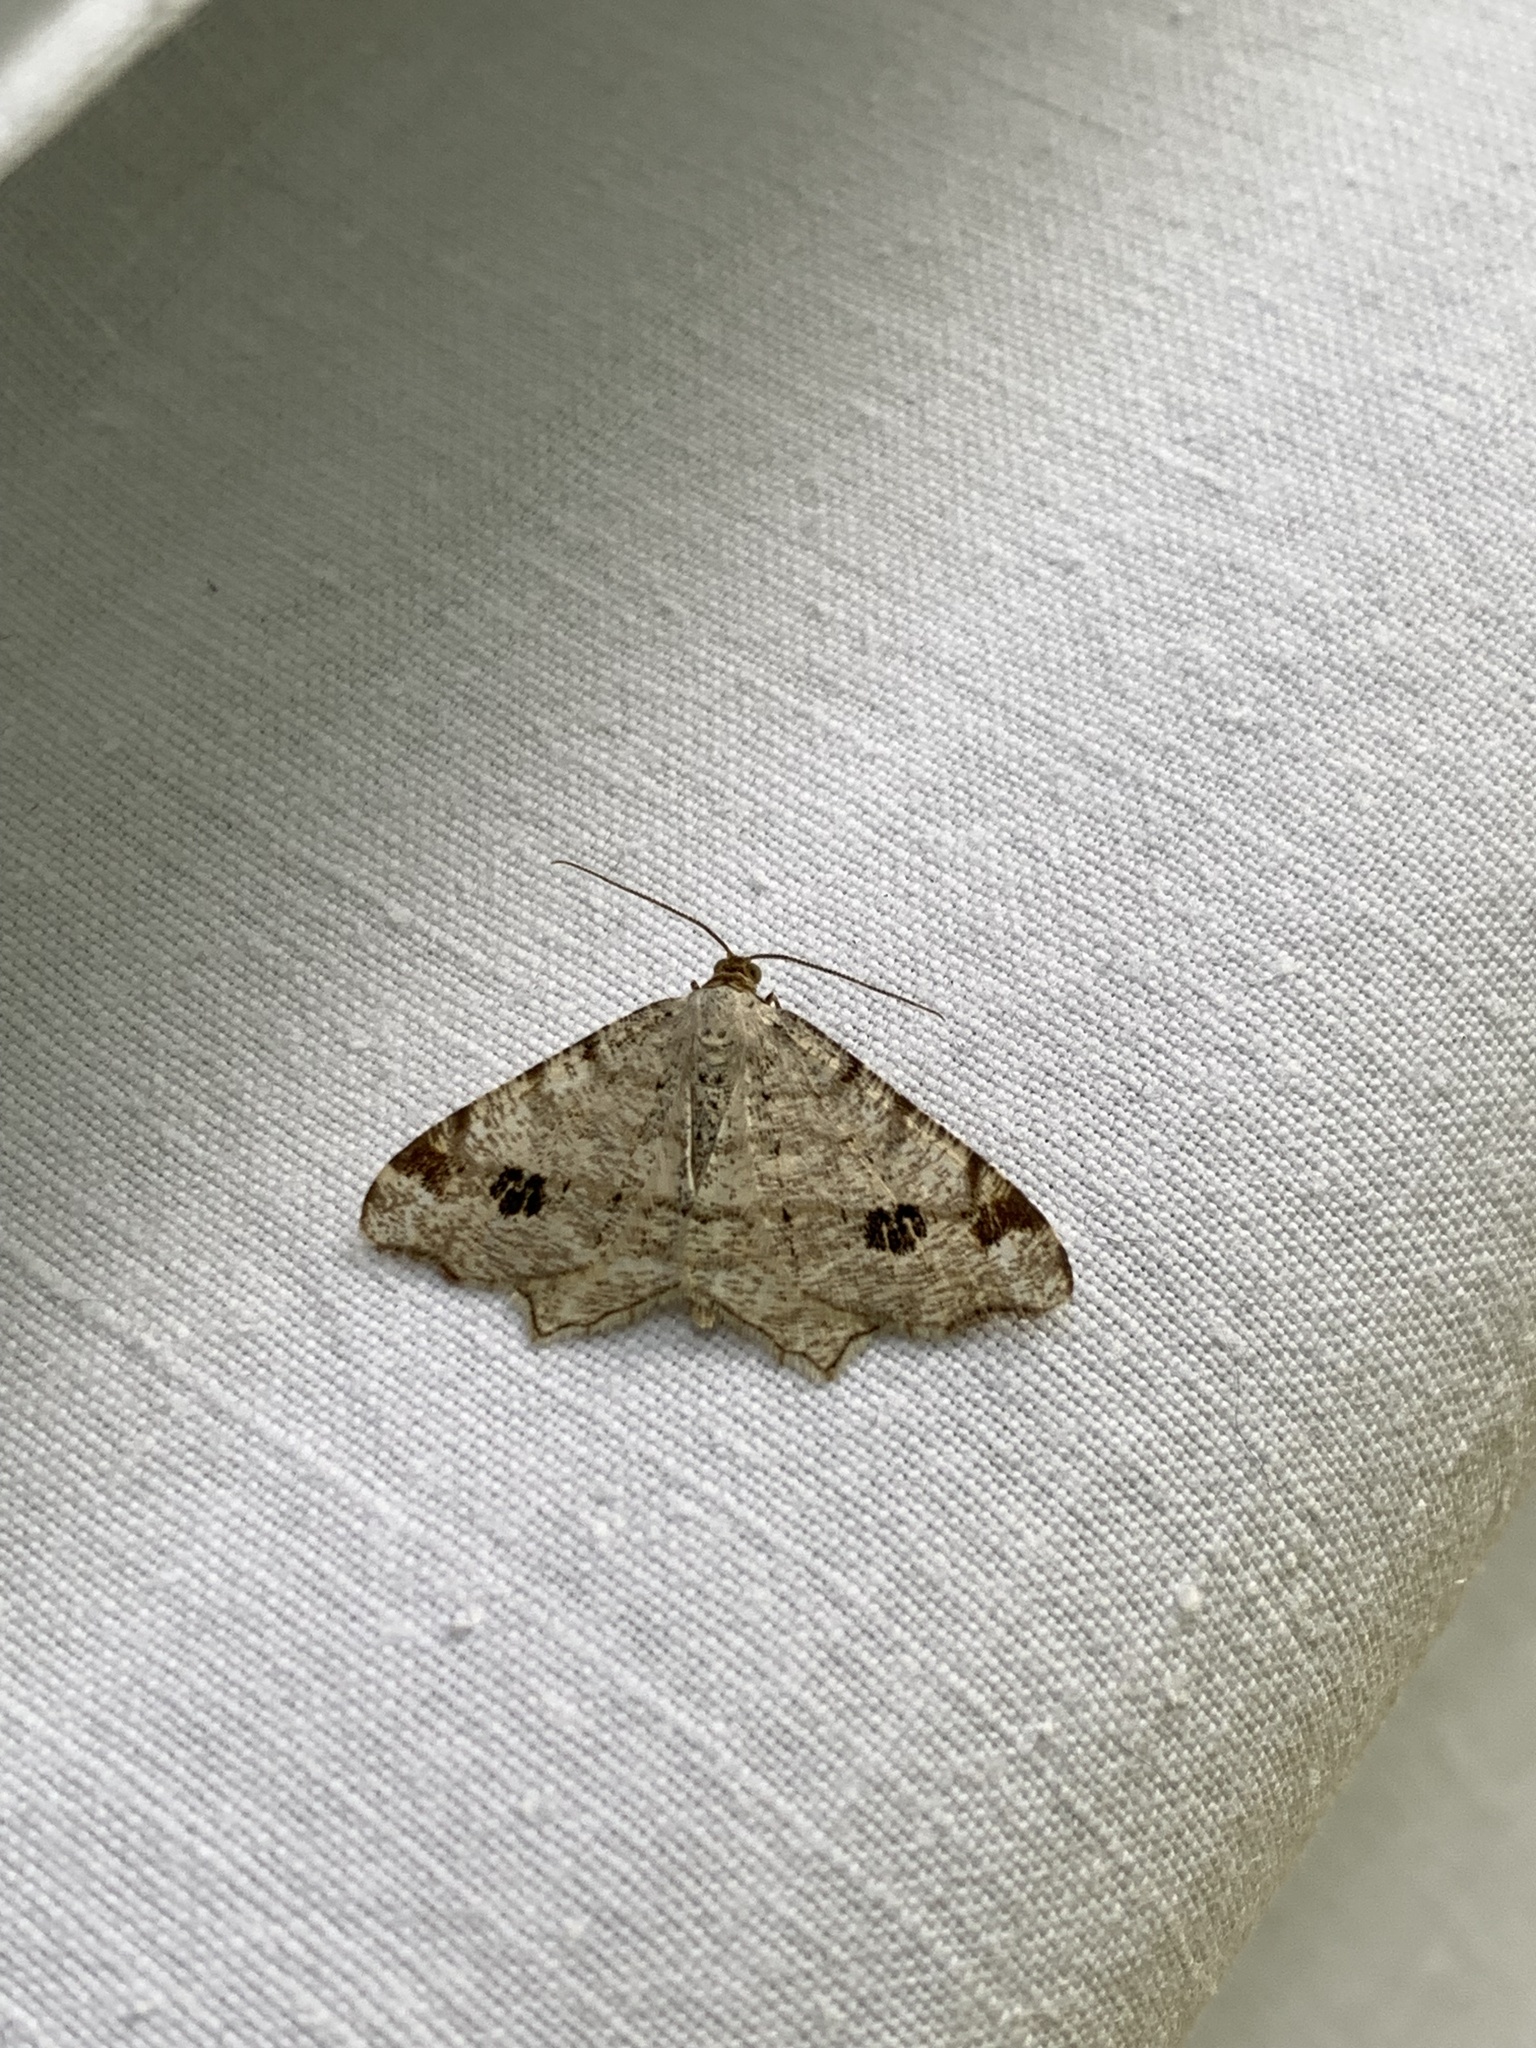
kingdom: Animalia
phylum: Arthropoda
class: Insecta
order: Lepidoptera
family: Geometridae
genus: Macaria
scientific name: Macaria notata
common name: Peacock moth
